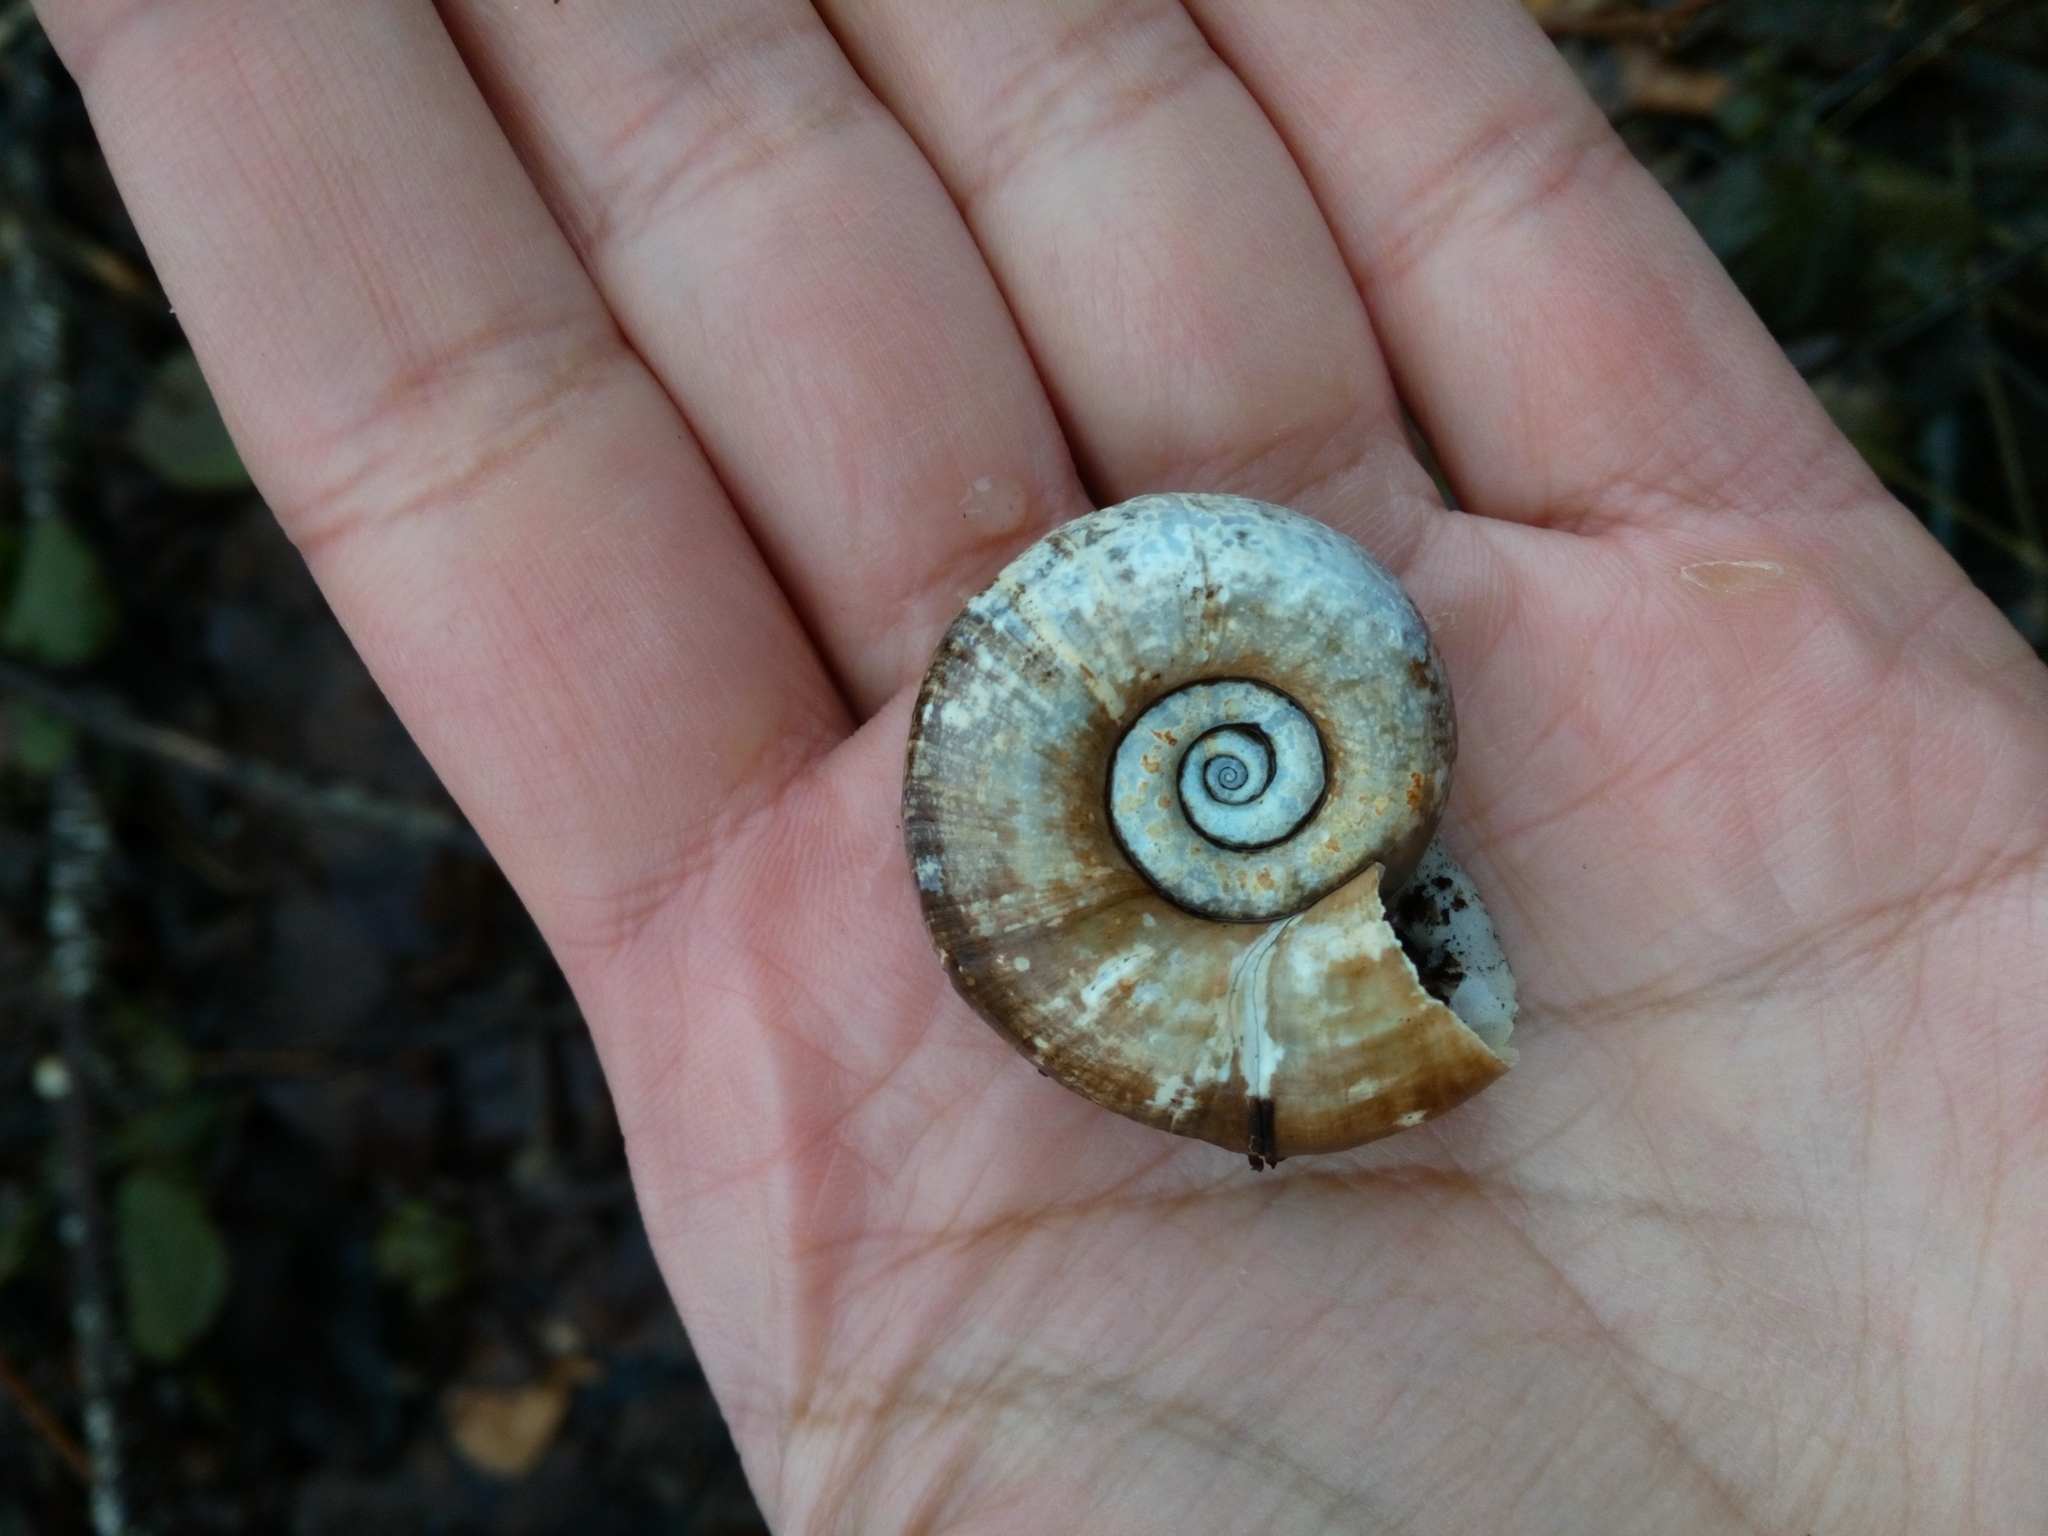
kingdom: Animalia
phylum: Mollusca
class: Gastropoda
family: Planorbidae
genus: Planorbarius
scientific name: Planorbarius corneus
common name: Great ramshorn
